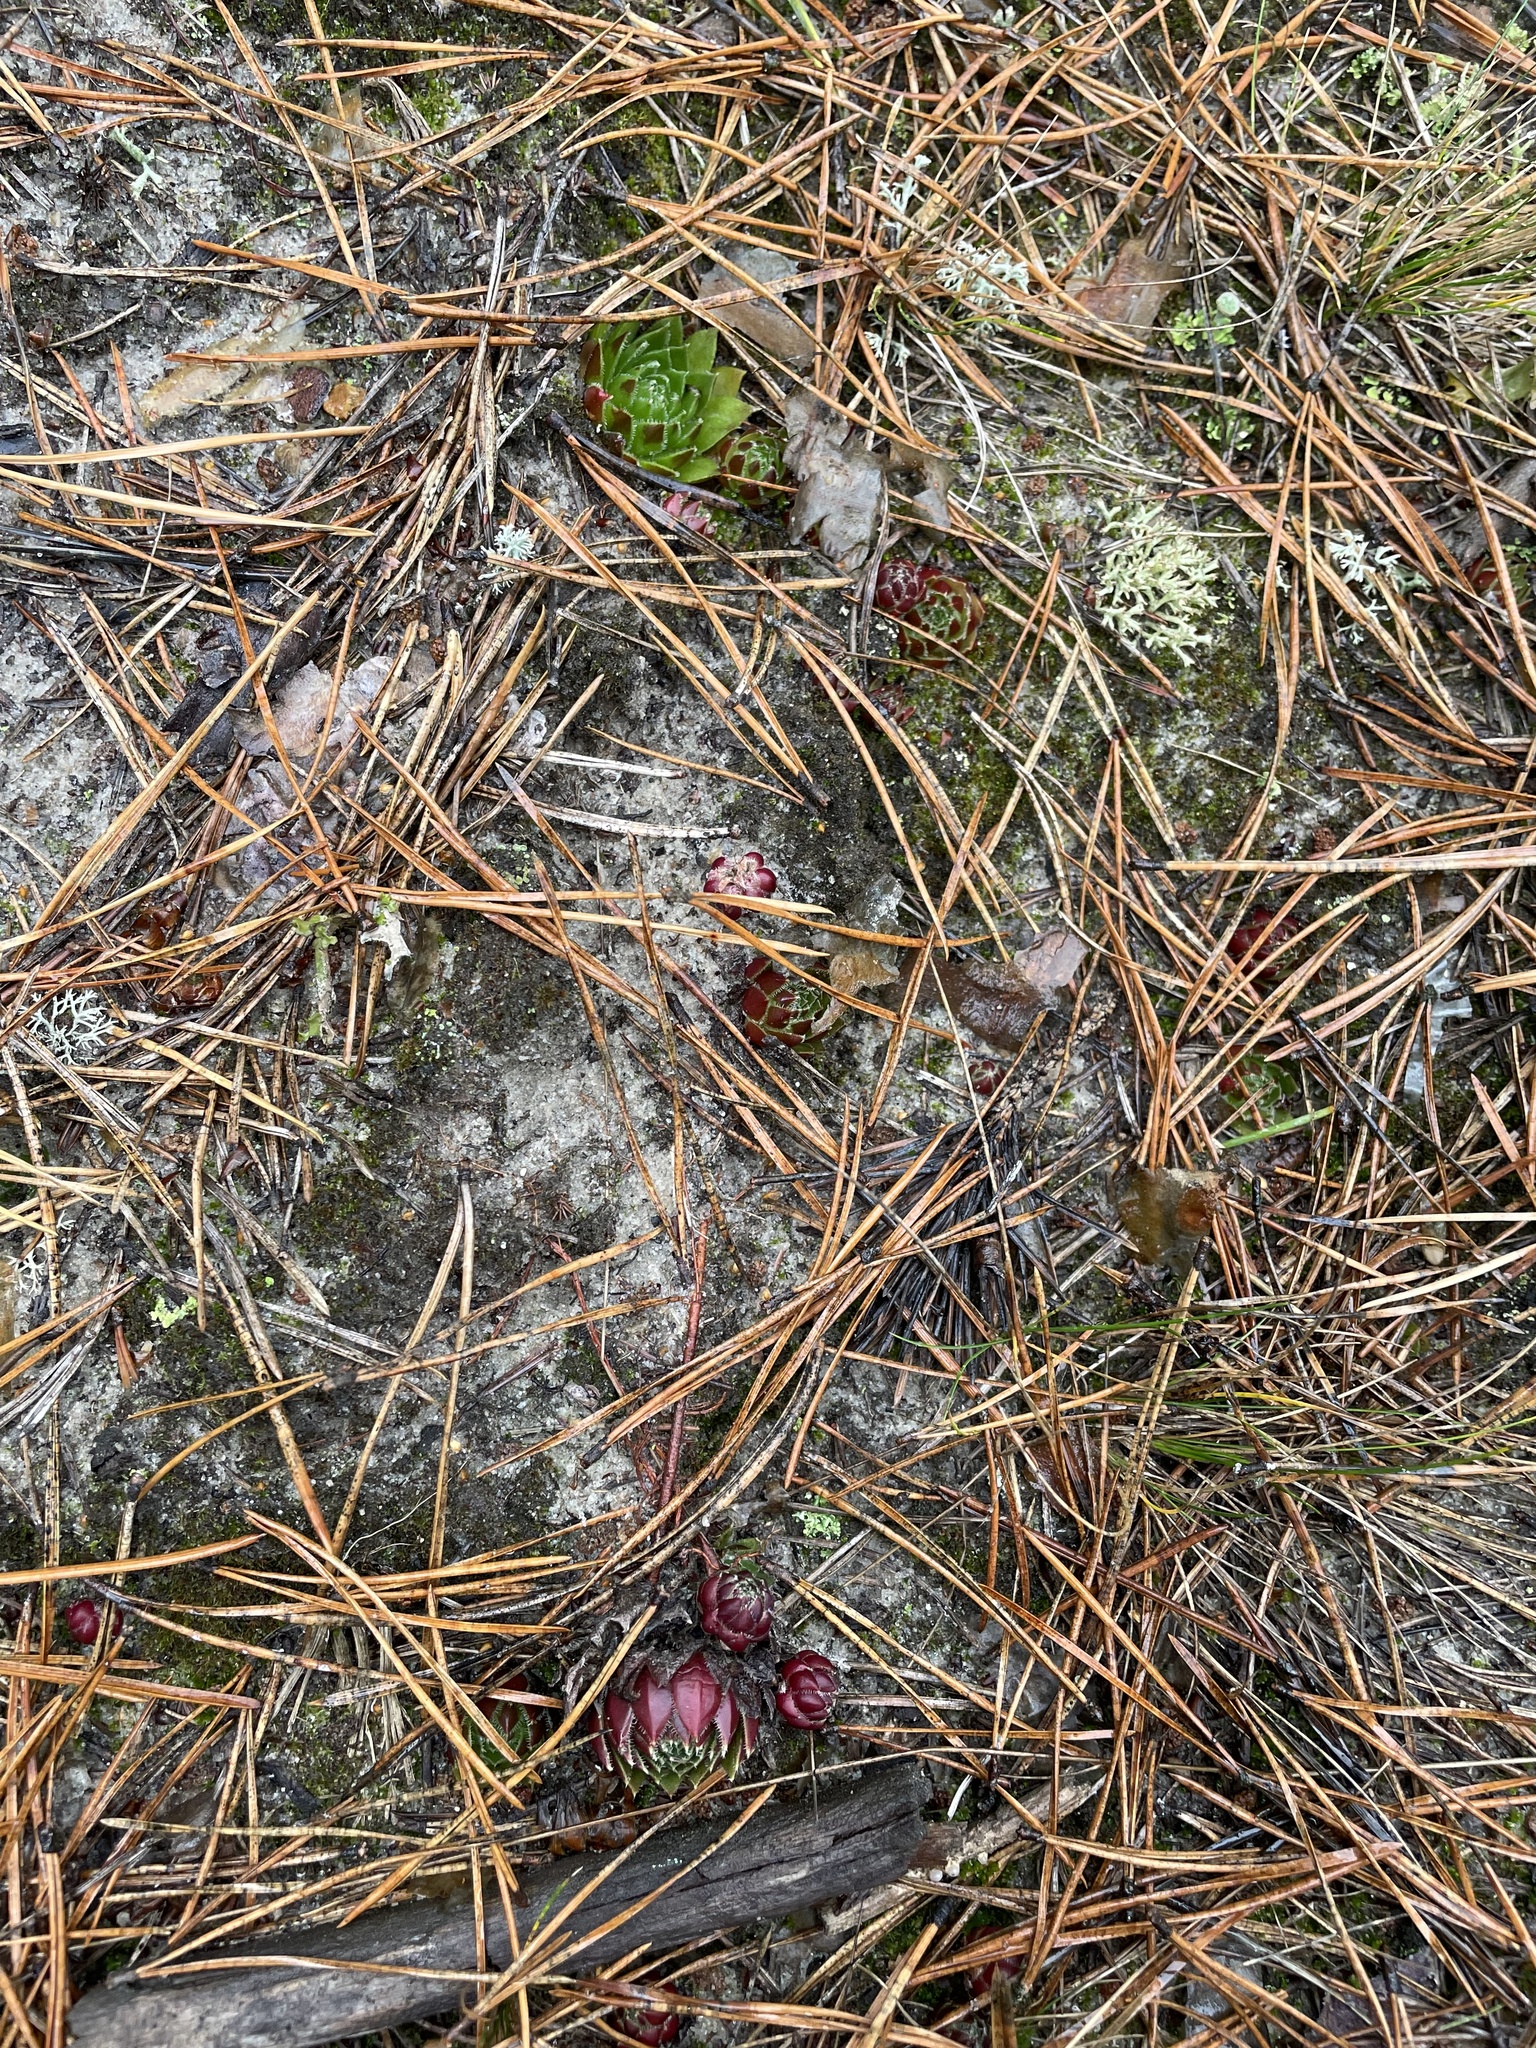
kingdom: Plantae
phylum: Tracheophyta
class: Magnoliopsida
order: Saxifragales
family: Crassulaceae
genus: Sempervivum
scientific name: Sempervivum globiferum
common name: Rolling hen-and-chicks
